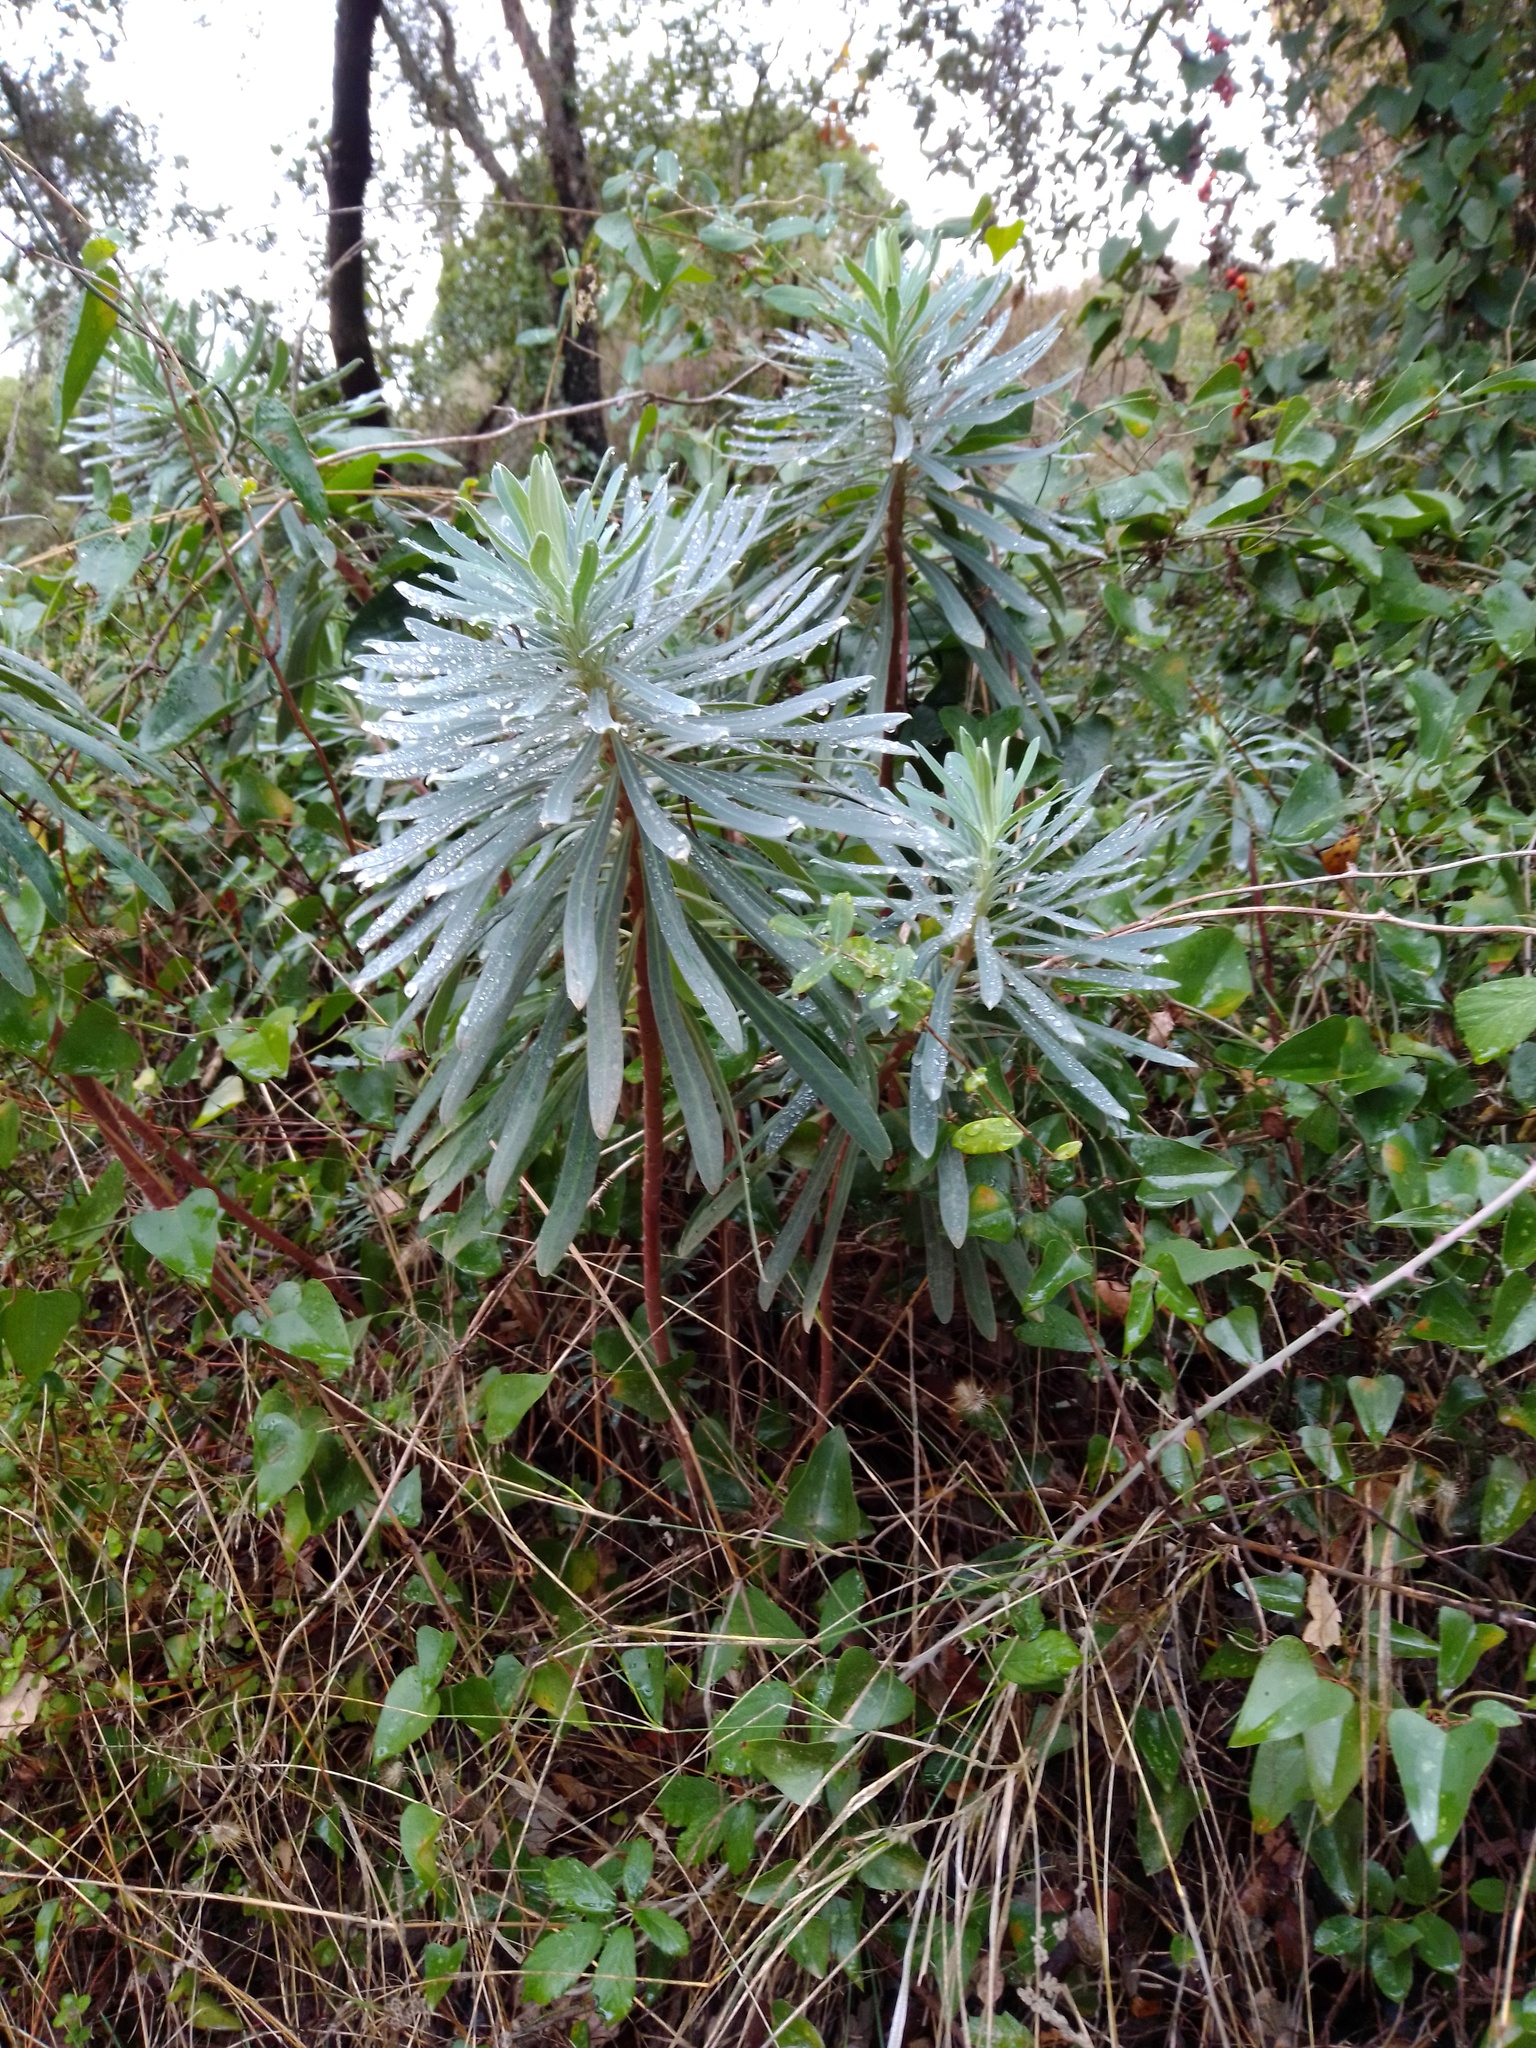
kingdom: Plantae
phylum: Tracheophyta
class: Magnoliopsida
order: Malpighiales
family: Euphorbiaceae
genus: Euphorbia
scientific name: Euphorbia characias
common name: Mediterranean spurge
